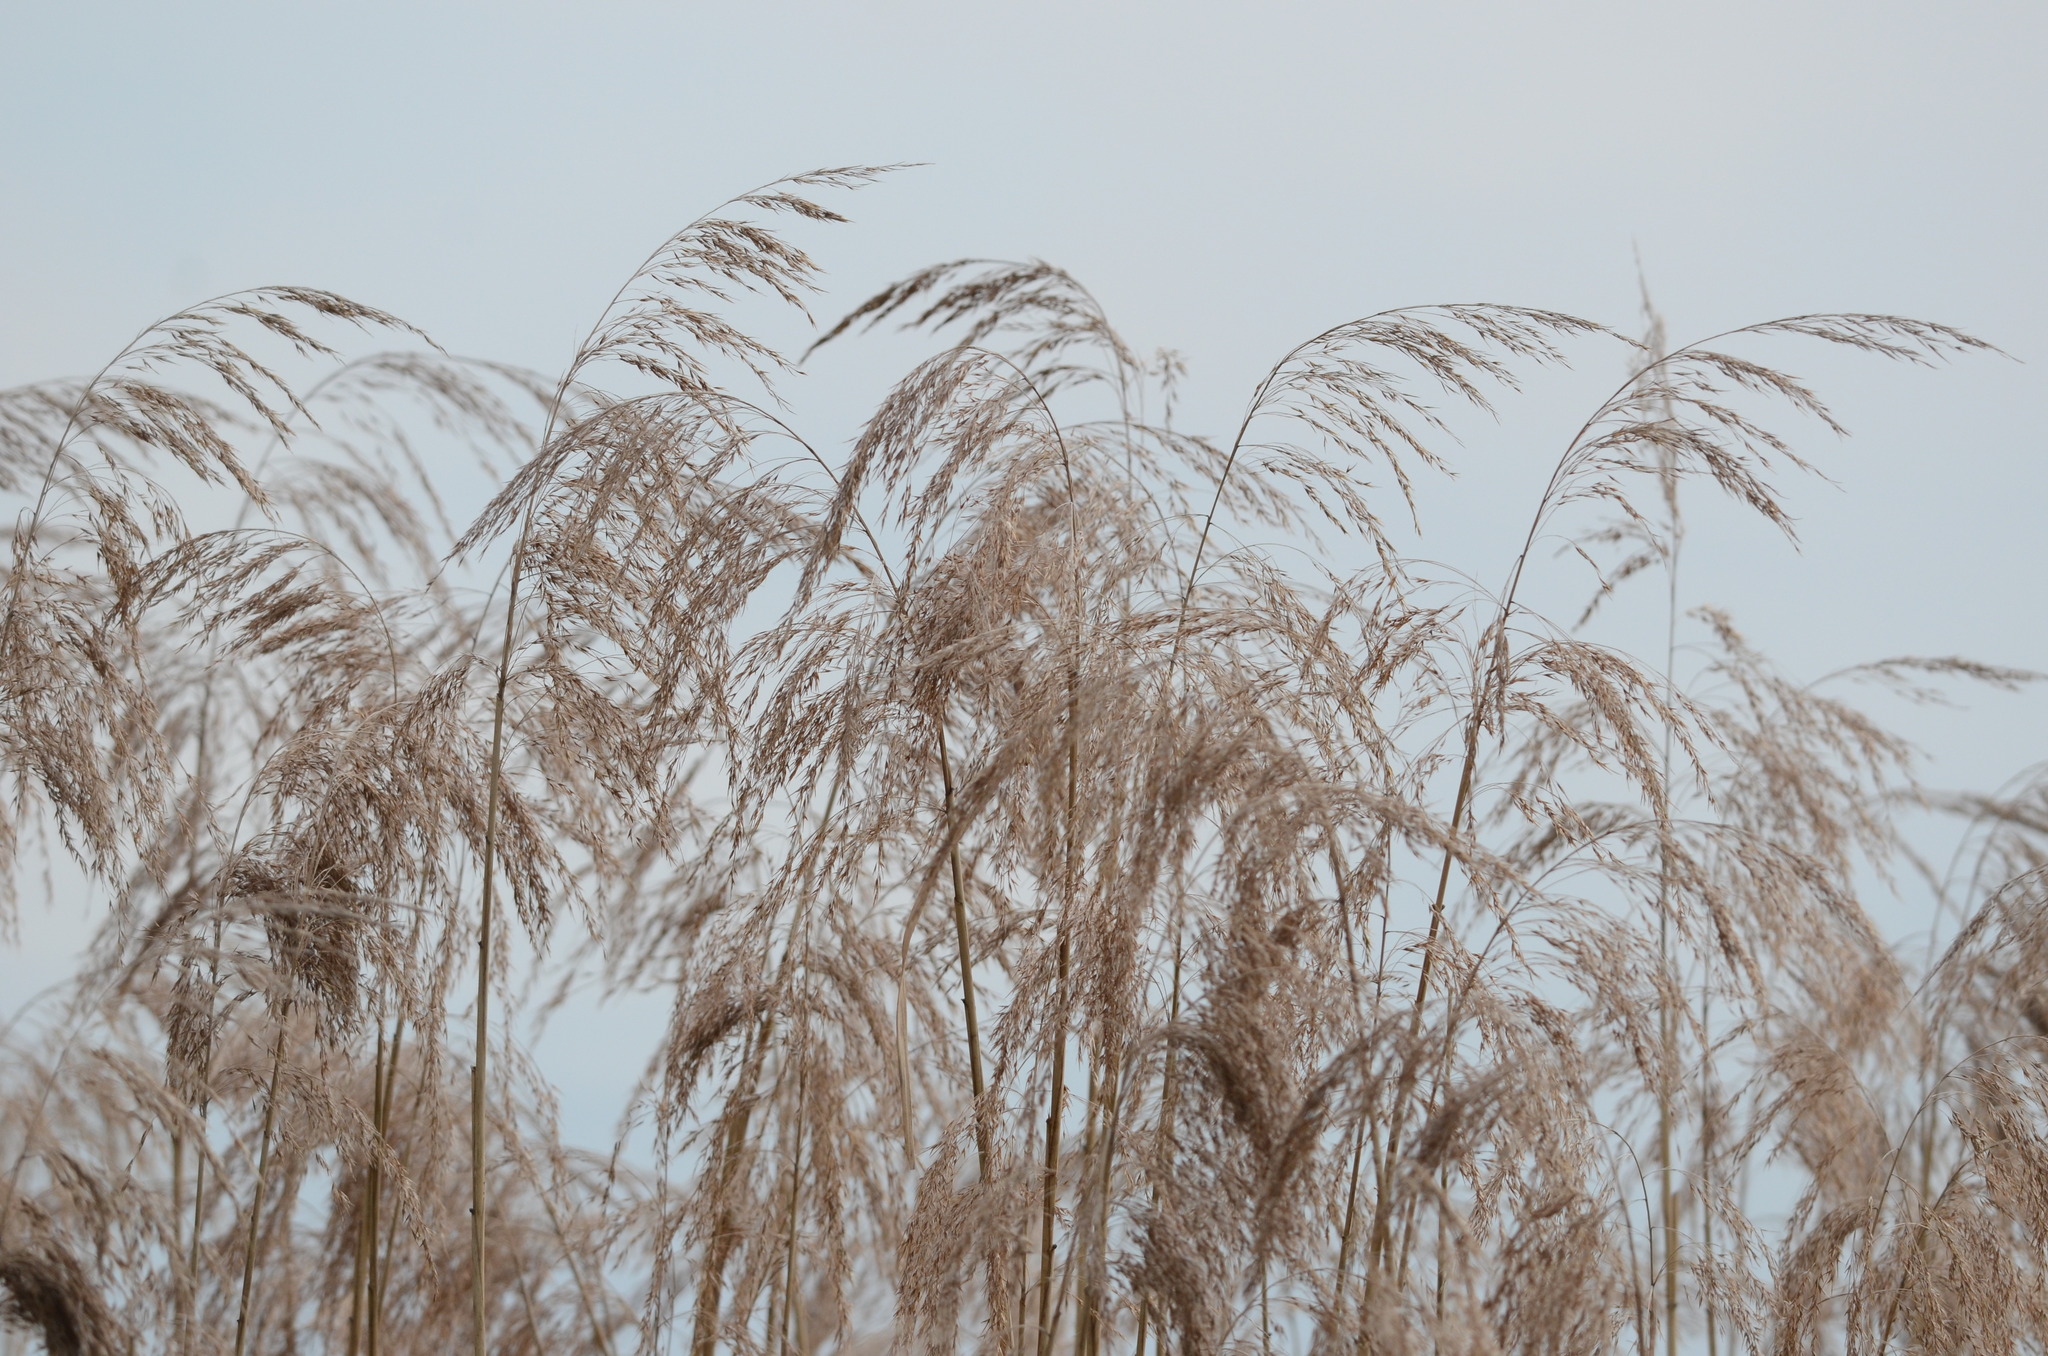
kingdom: Plantae
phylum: Tracheophyta
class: Liliopsida
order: Poales
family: Poaceae
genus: Phragmites
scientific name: Phragmites australis
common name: Common reed
